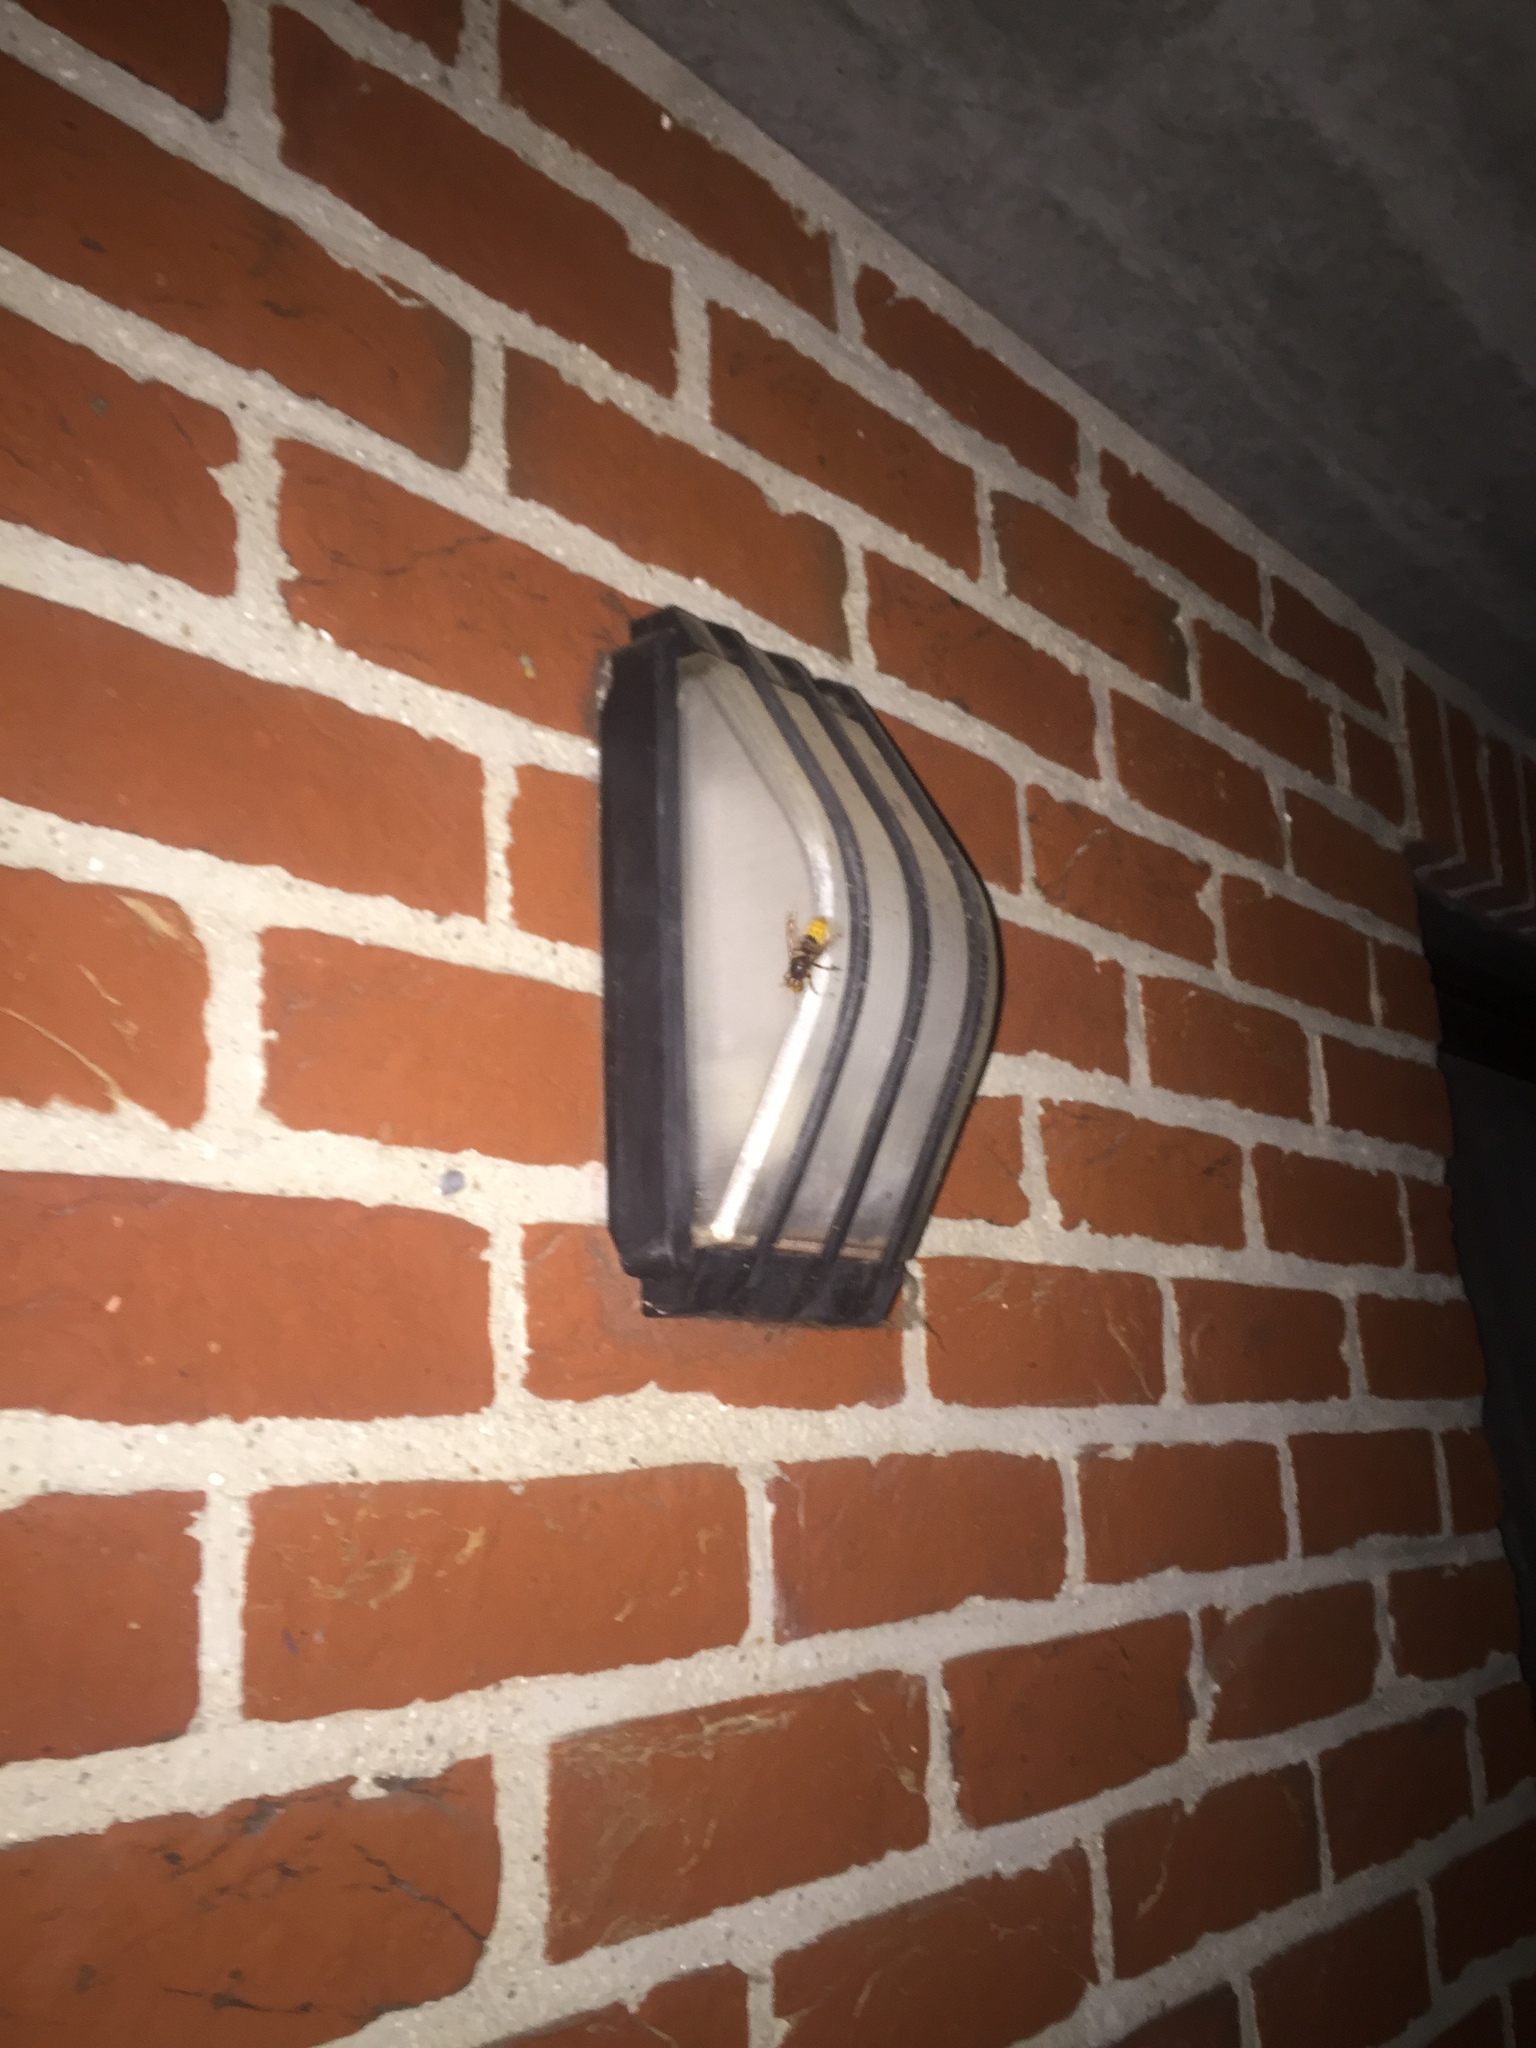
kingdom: Animalia
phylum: Arthropoda
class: Insecta
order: Hymenoptera
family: Vespidae
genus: Vespa
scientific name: Vespa crabro
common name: Hornet
